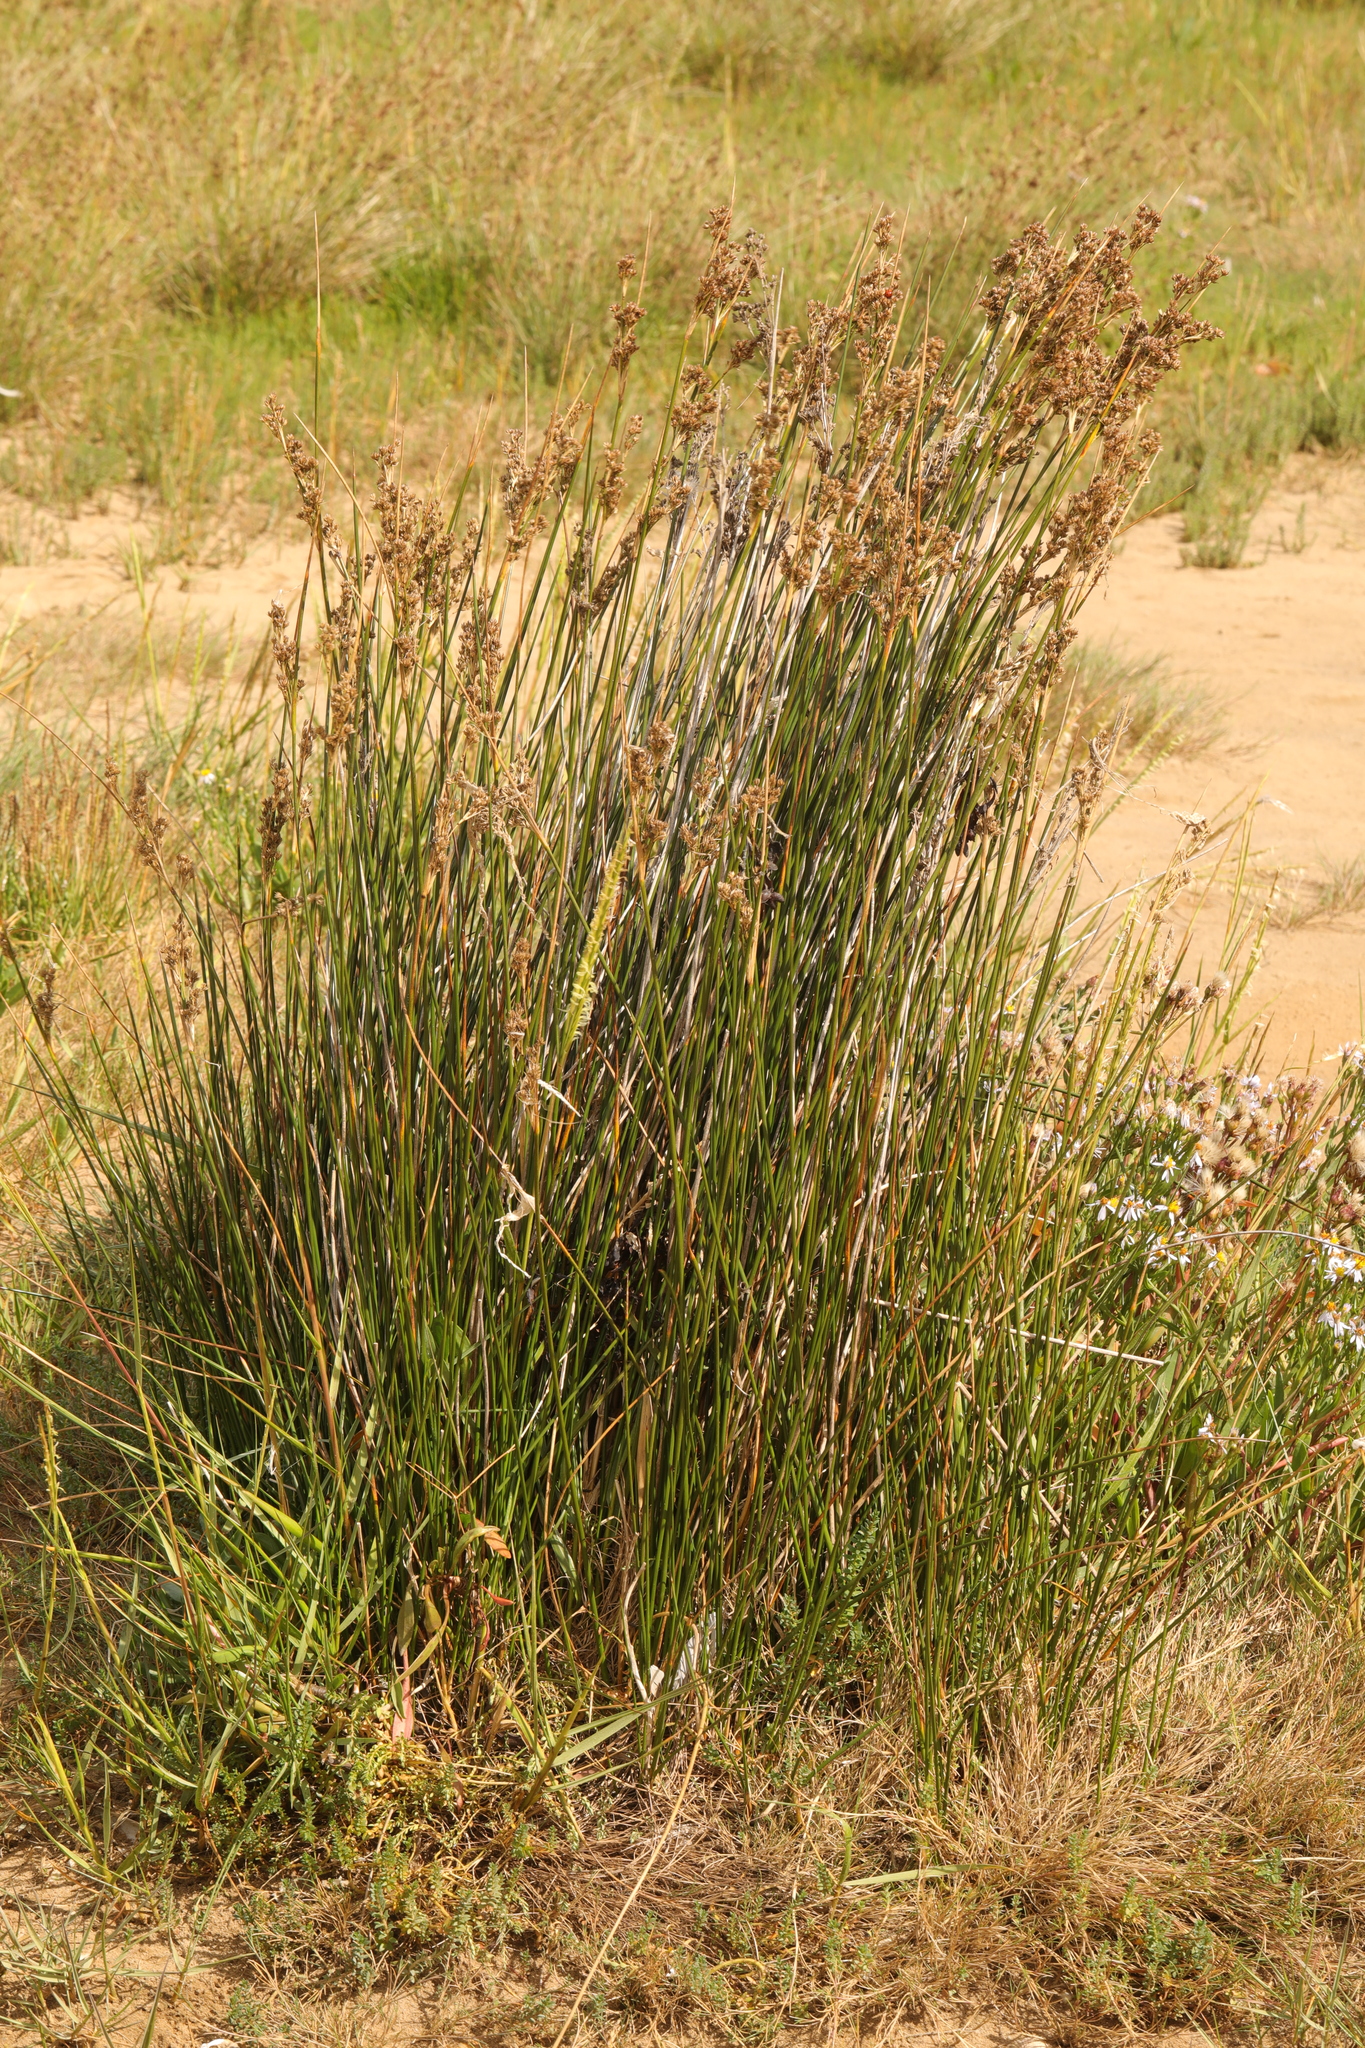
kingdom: Plantae
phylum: Tracheophyta
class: Liliopsida
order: Poales
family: Juncaceae
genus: Juncus
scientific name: Juncus maritimus
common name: Sea rush
